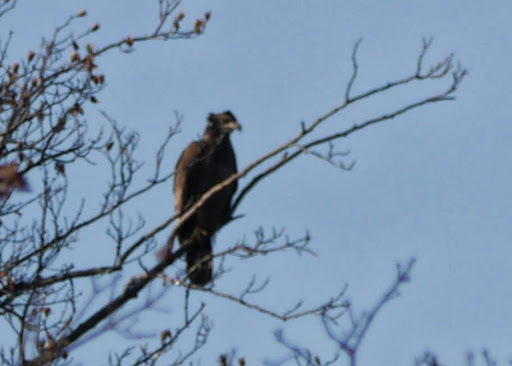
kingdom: Animalia
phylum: Chordata
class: Aves
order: Accipitriformes
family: Accipitridae
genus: Haliaeetus
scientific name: Haliaeetus leucocephalus
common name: Bald eagle
